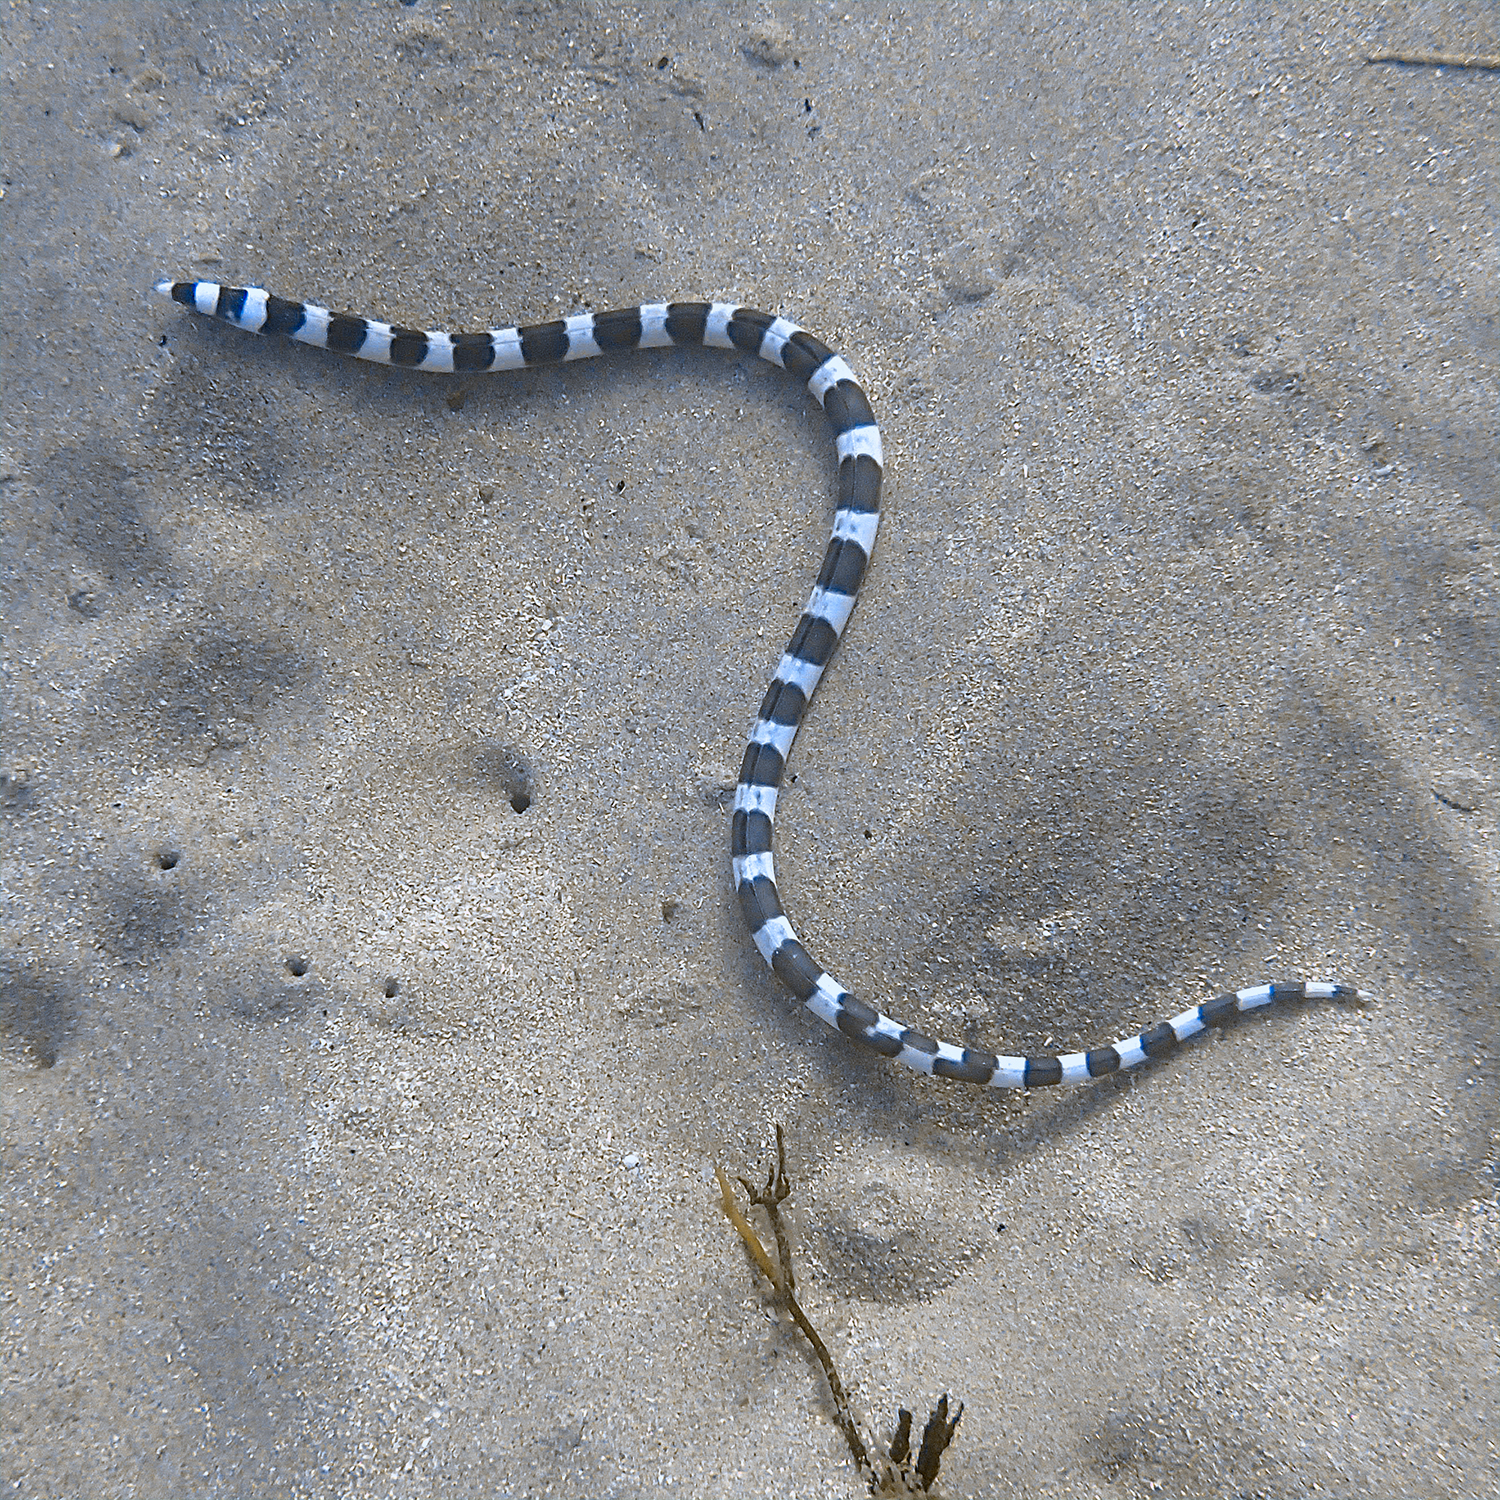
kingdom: Animalia
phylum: Chordata
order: Anguilliformes
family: Ophichthidae
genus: Leiuranus
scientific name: Leiuranus semicinctus
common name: Saddled snake eel
